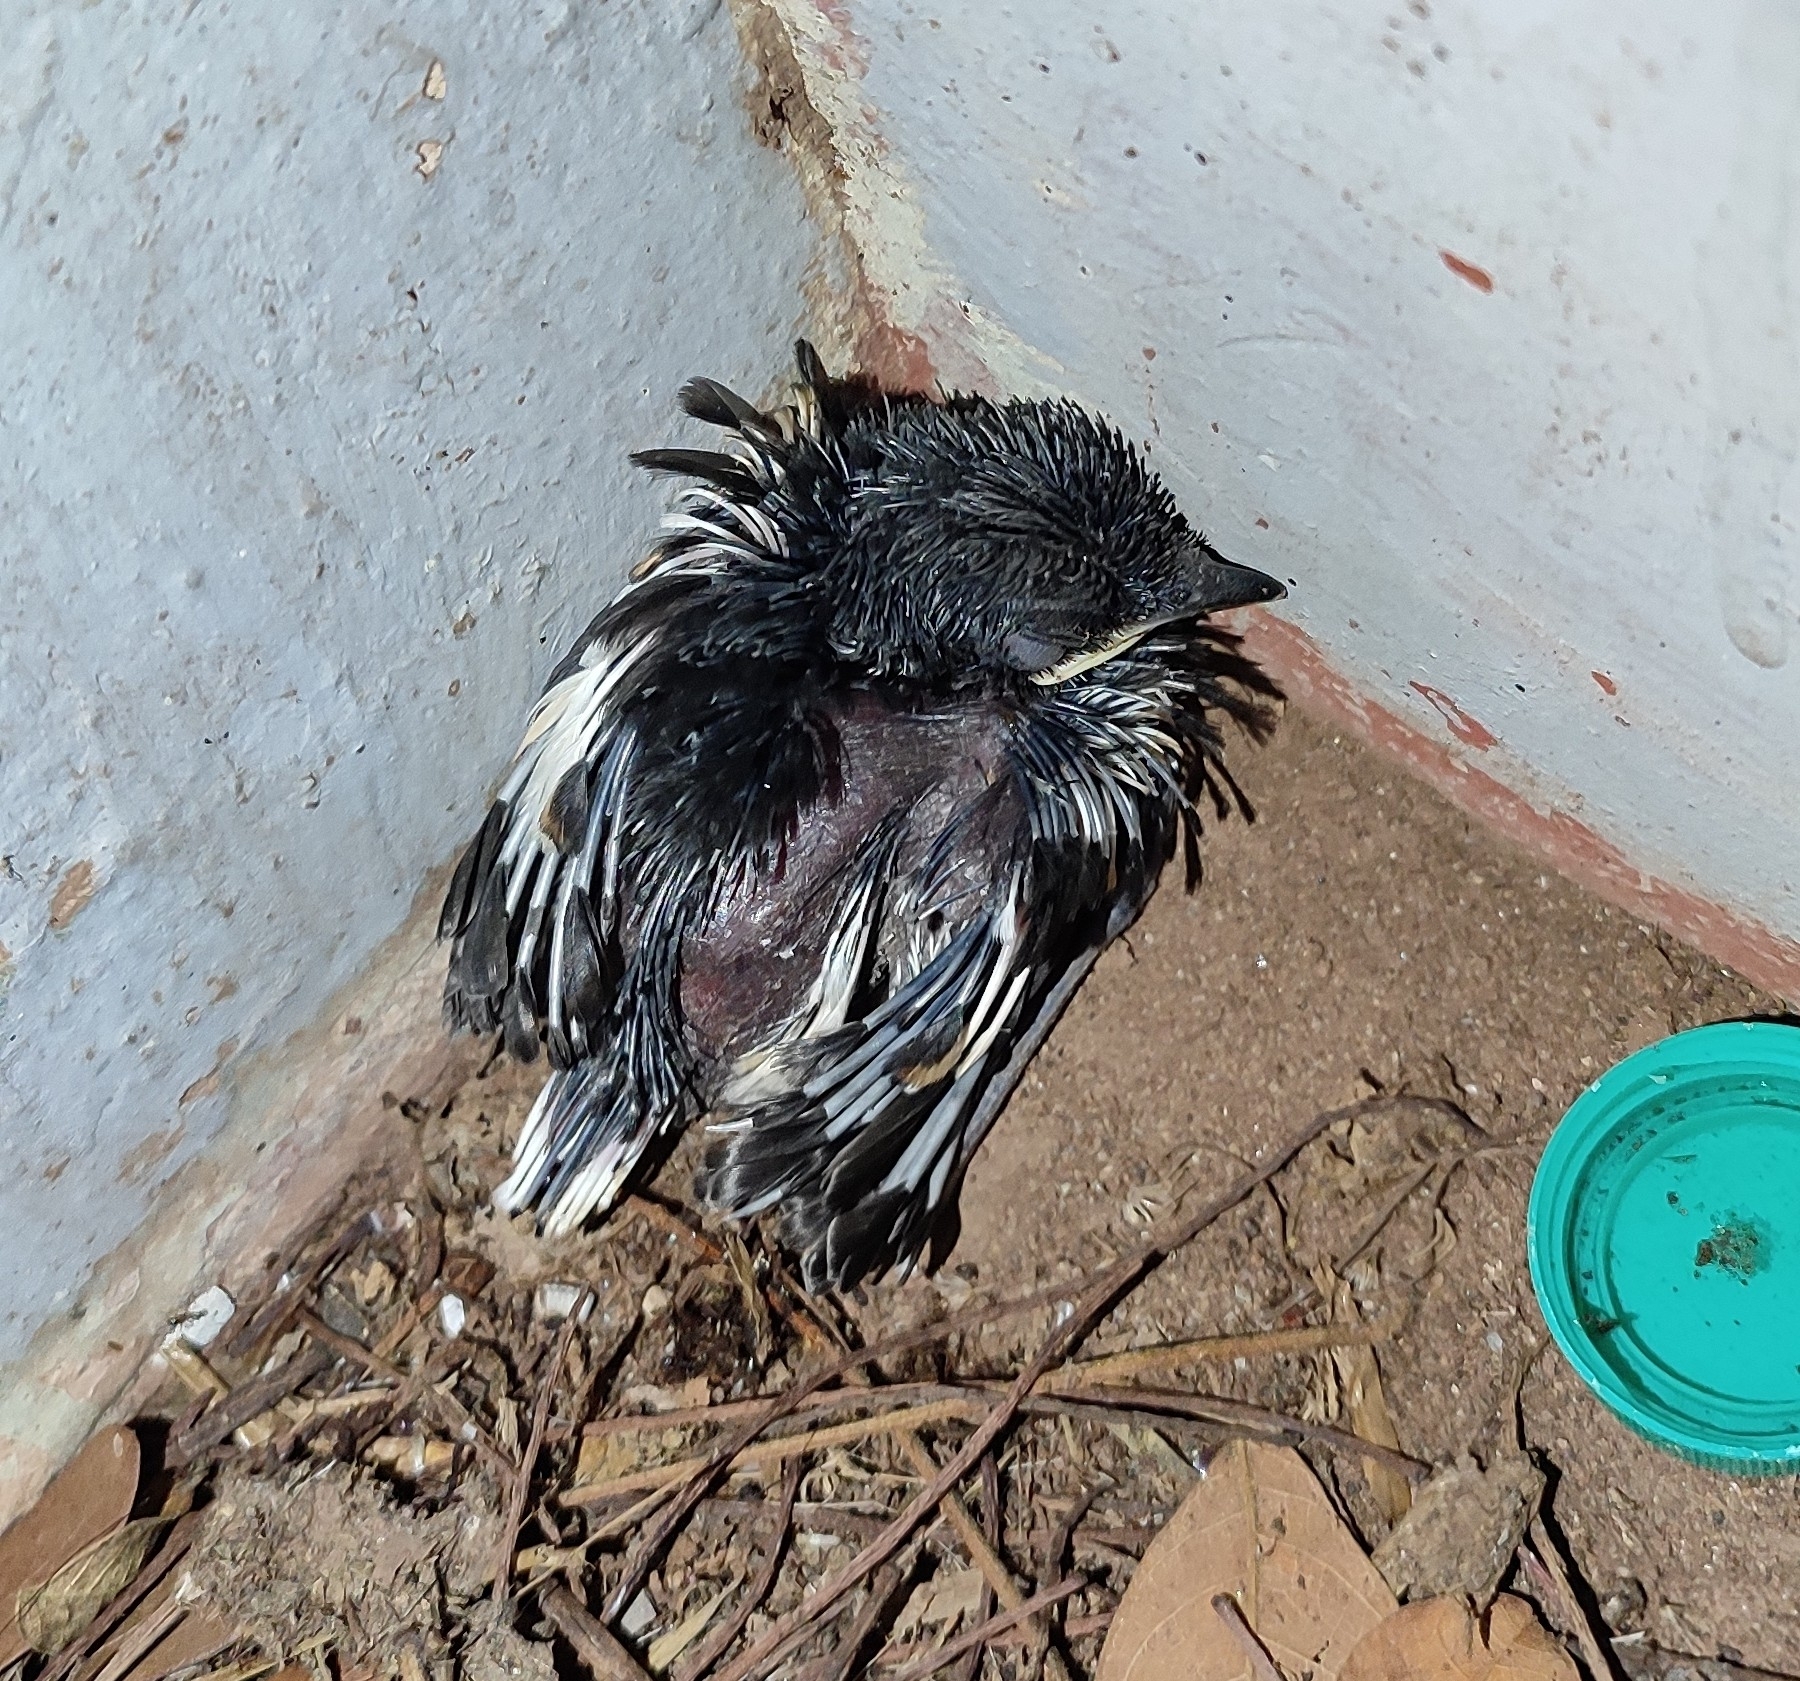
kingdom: Animalia
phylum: Chordata
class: Aves
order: Passeriformes
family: Muscicapidae
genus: Copsychus
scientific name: Copsychus saularis
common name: Oriental magpie-robin
